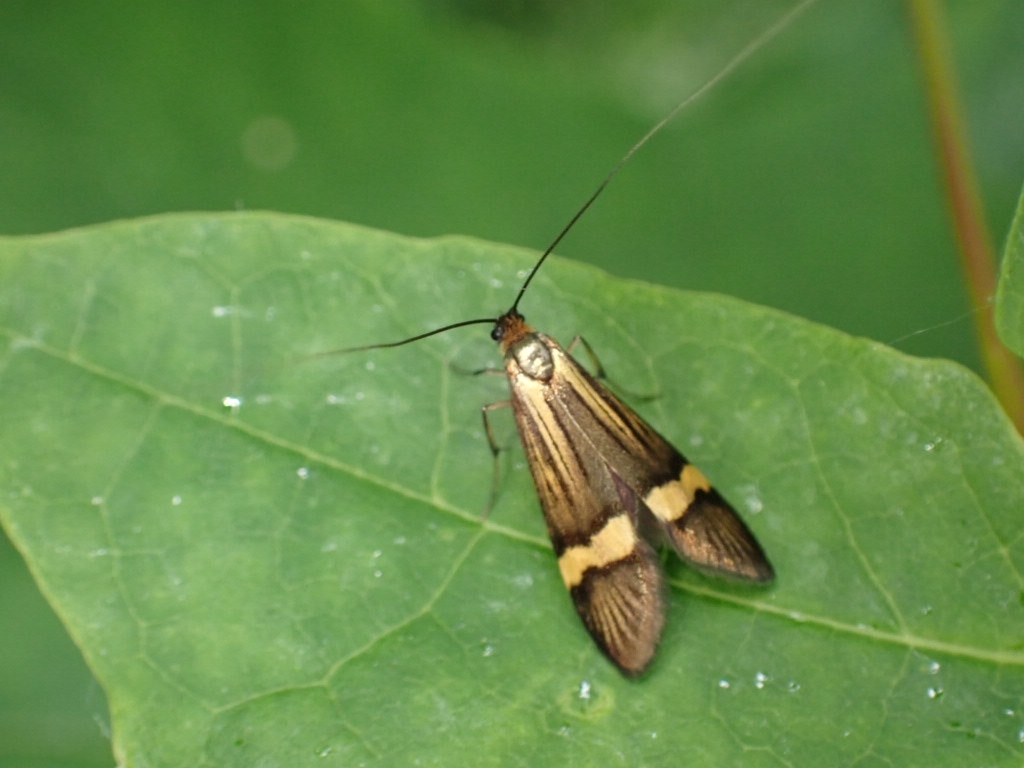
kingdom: Animalia
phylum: Arthropoda
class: Insecta
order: Lepidoptera
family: Adelidae
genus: Nemophora
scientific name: Nemophora degeerella
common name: Yellow-barred long-horn
